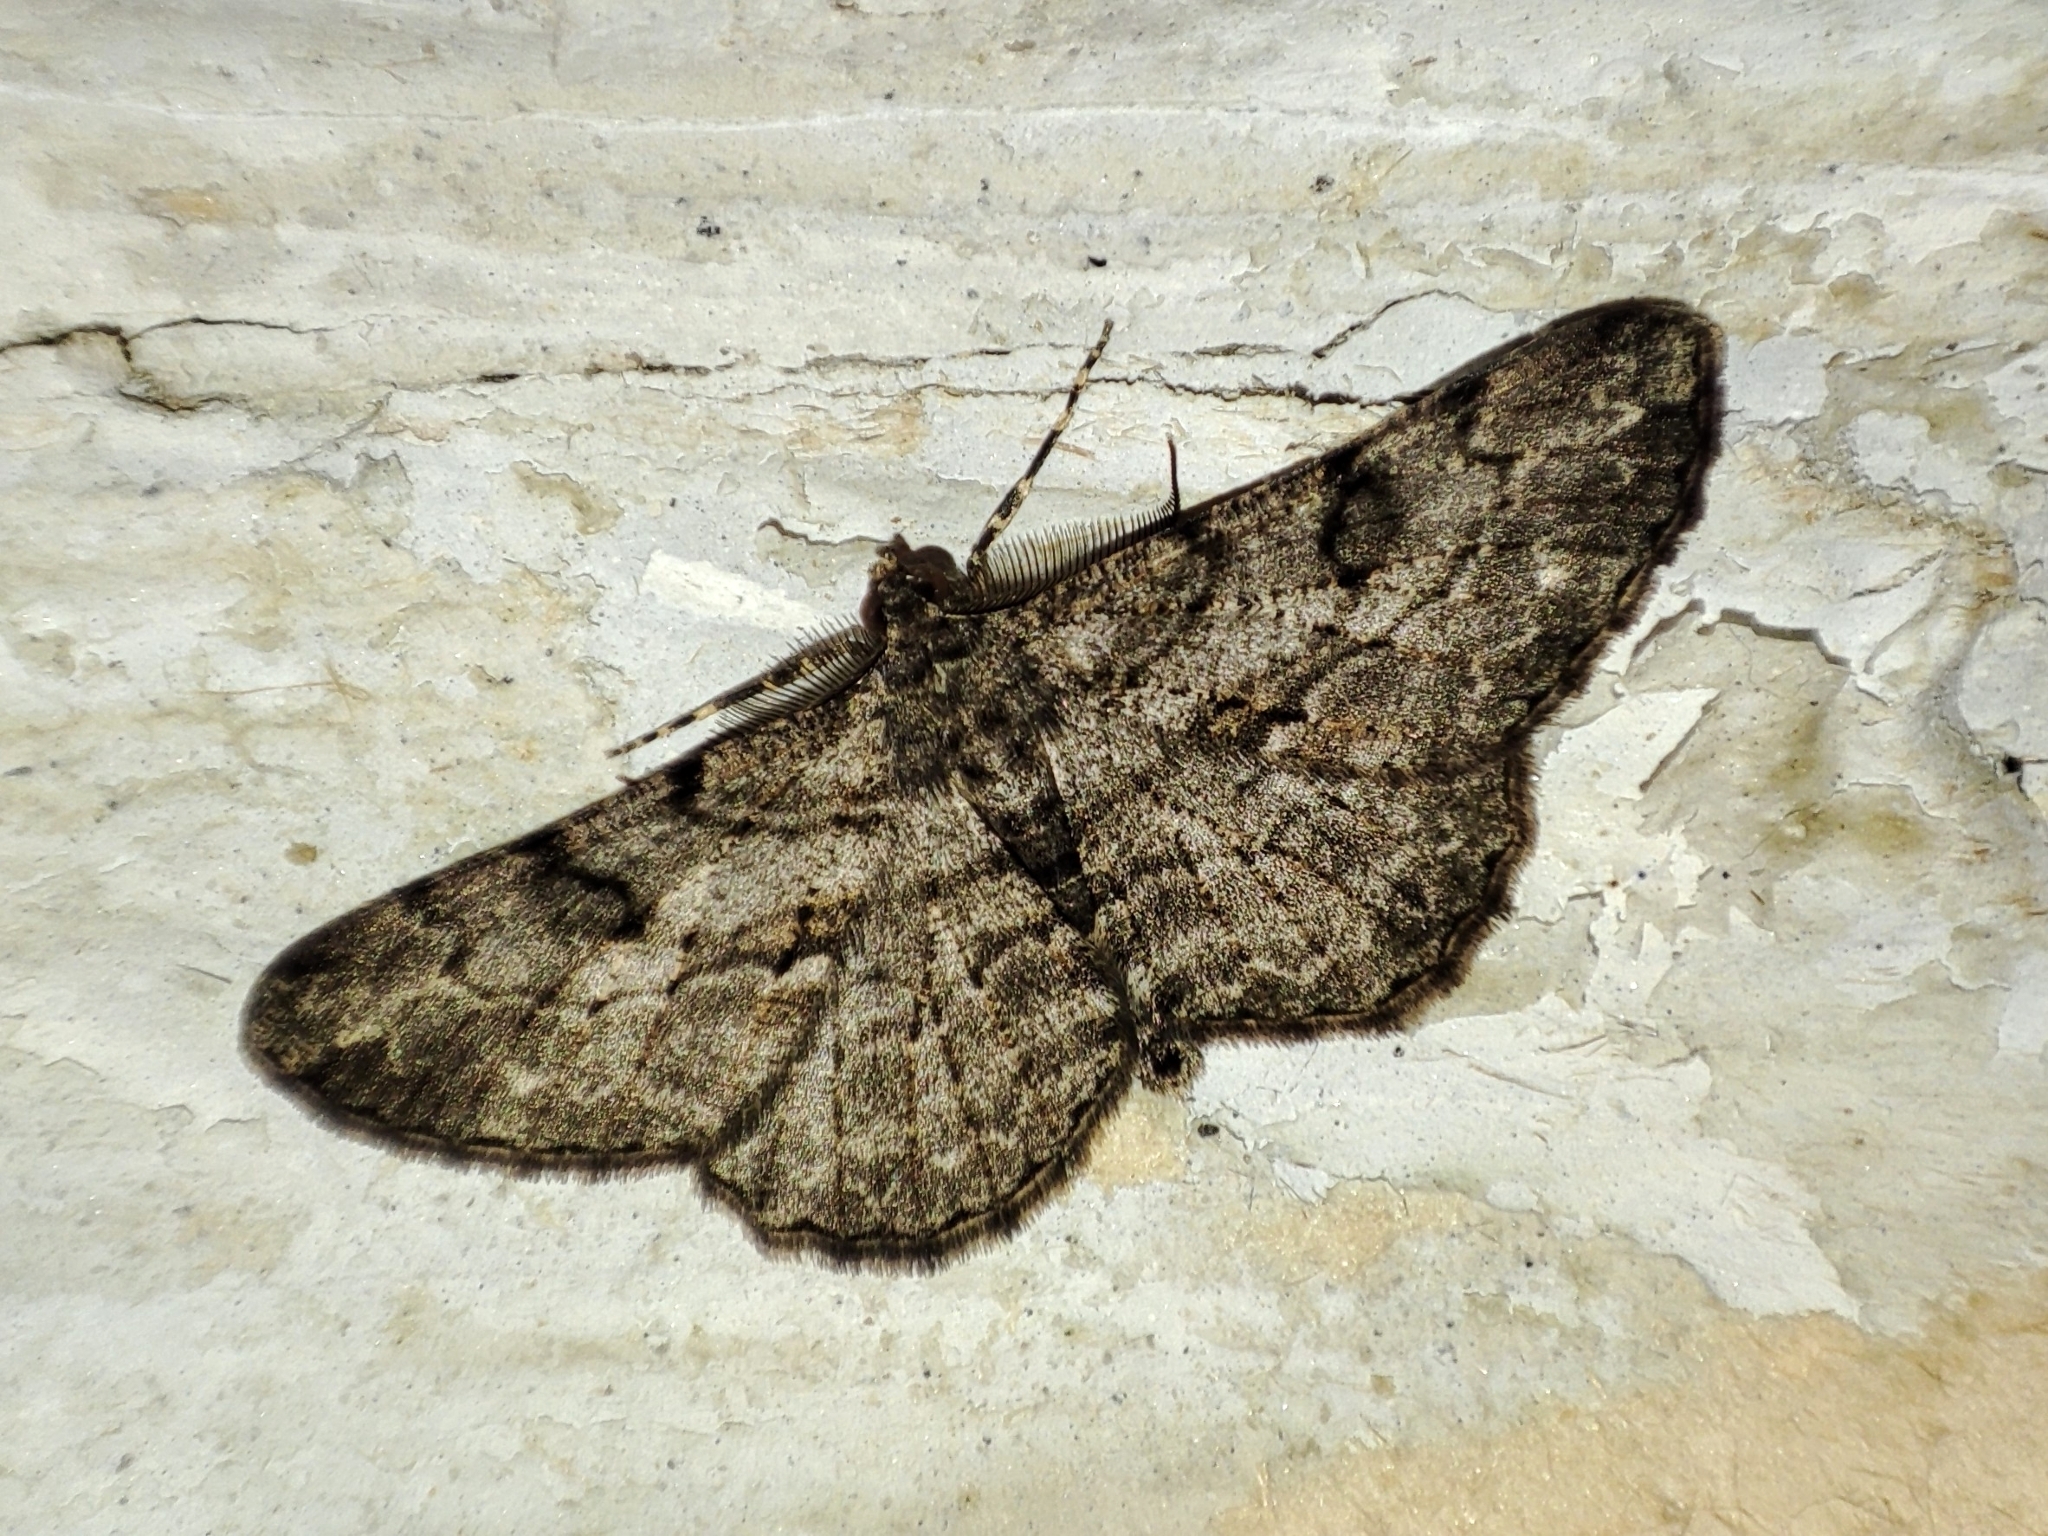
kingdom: Animalia
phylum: Arthropoda
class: Insecta
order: Lepidoptera
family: Geometridae
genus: Peribatodes
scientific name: Peribatodes rhomboidaria
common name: Willow beauty
